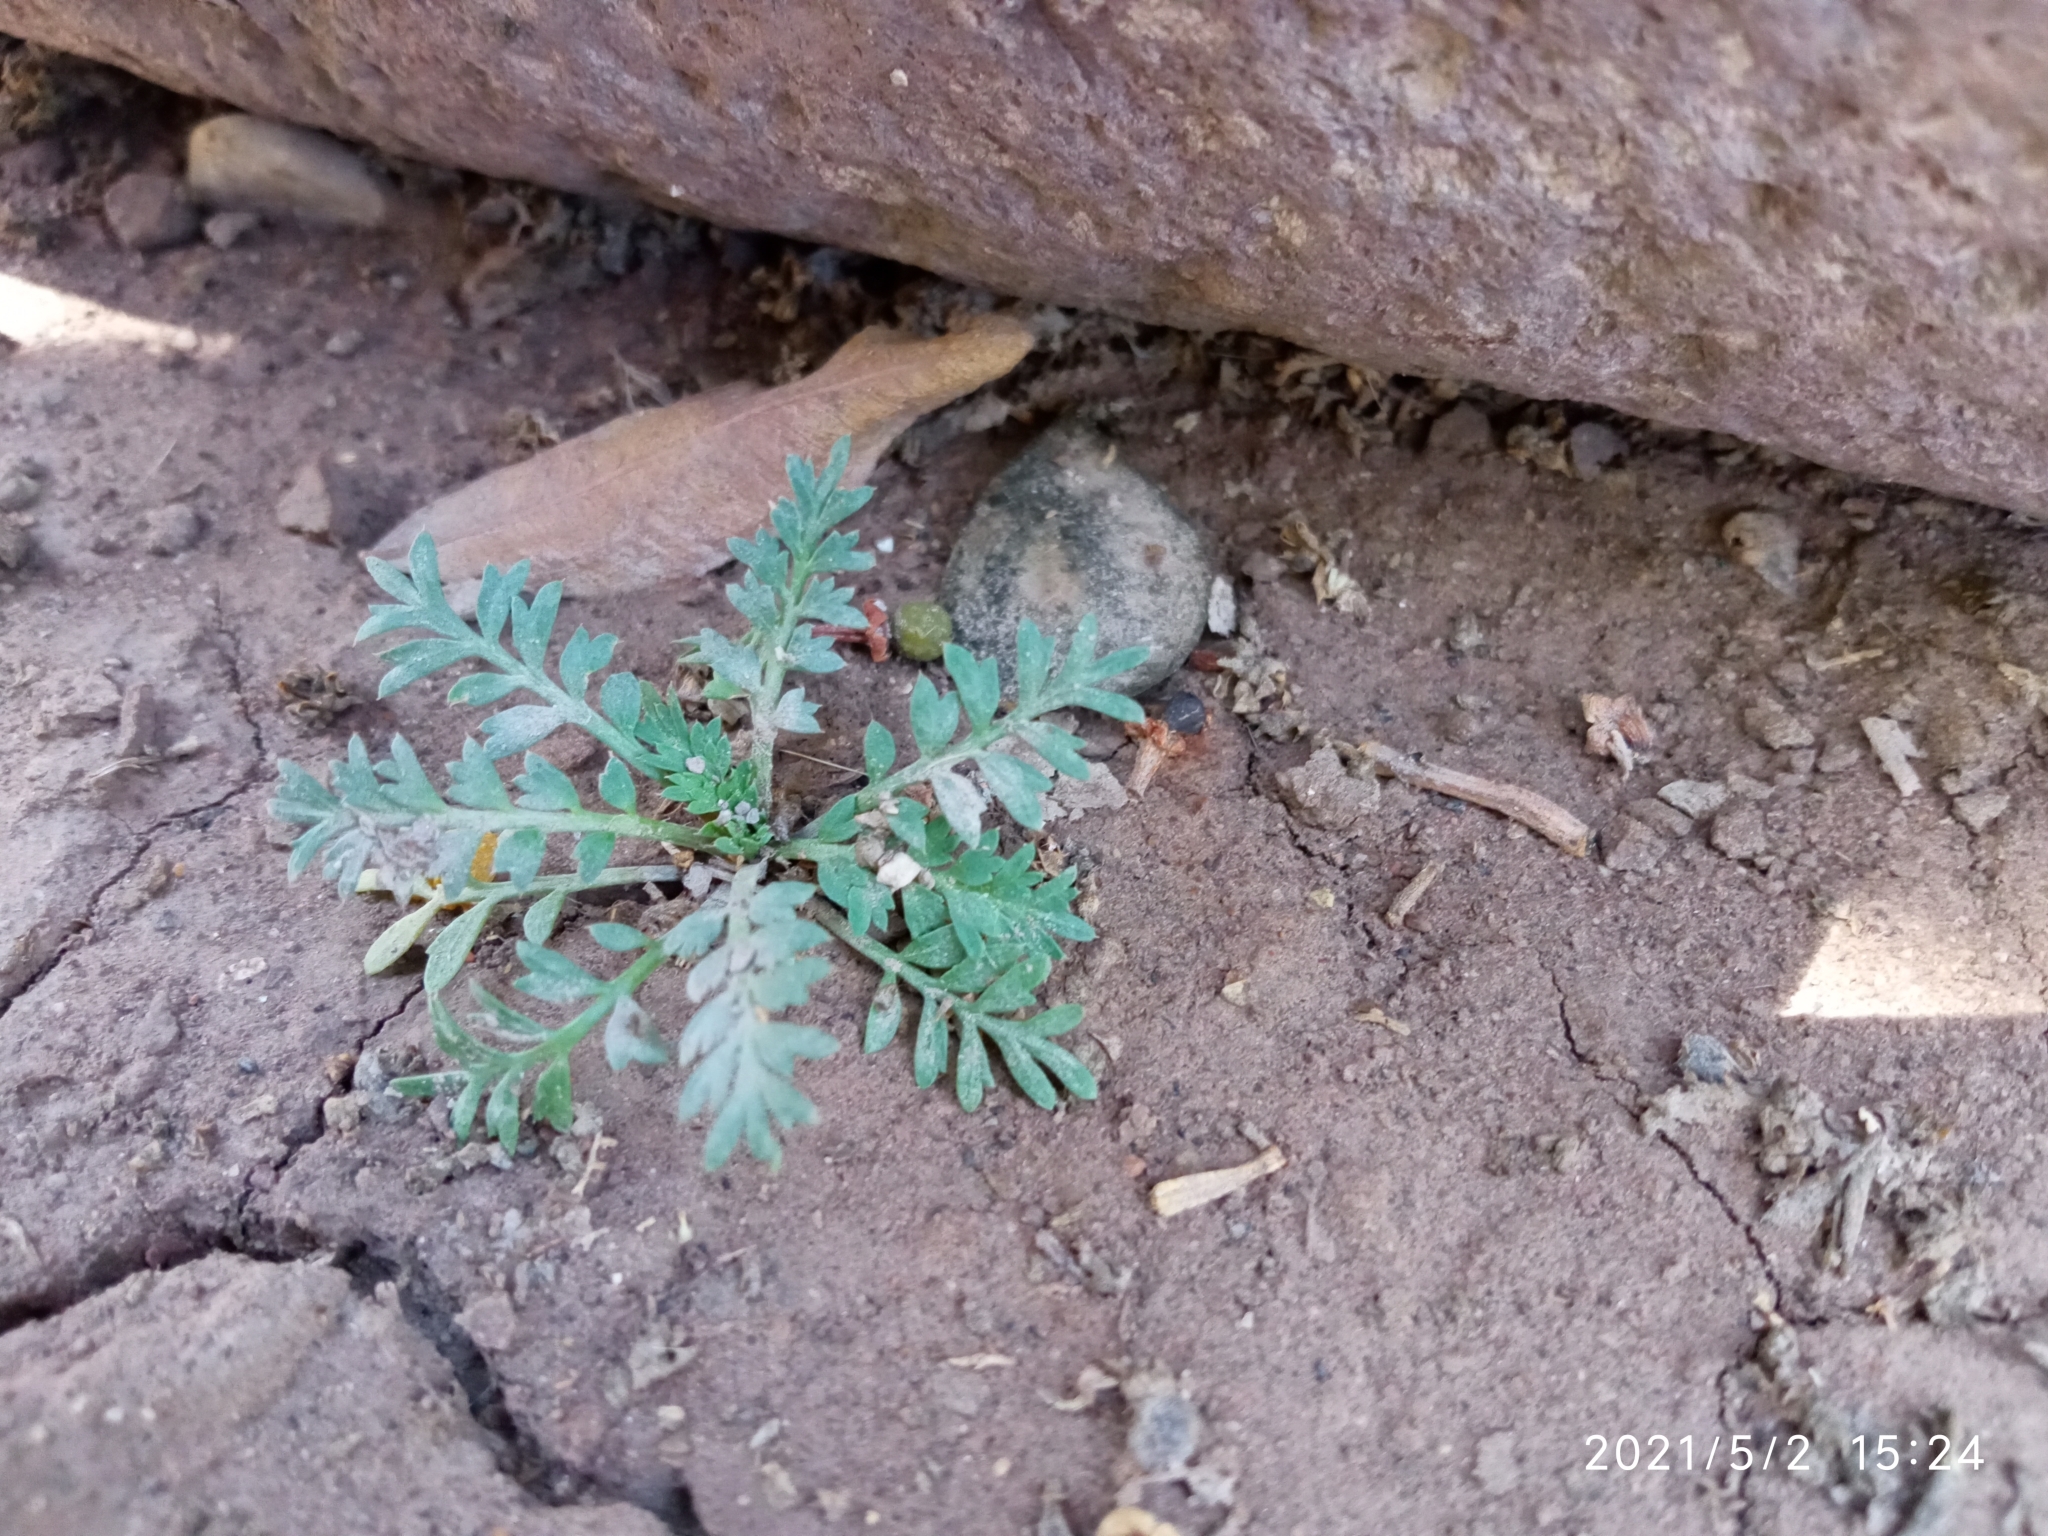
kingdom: Plantae
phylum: Tracheophyta
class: Magnoliopsida
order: Brassicales
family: Brassicaceae
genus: Lepidium
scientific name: Lepidium didymum
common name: Lesser swinecress
